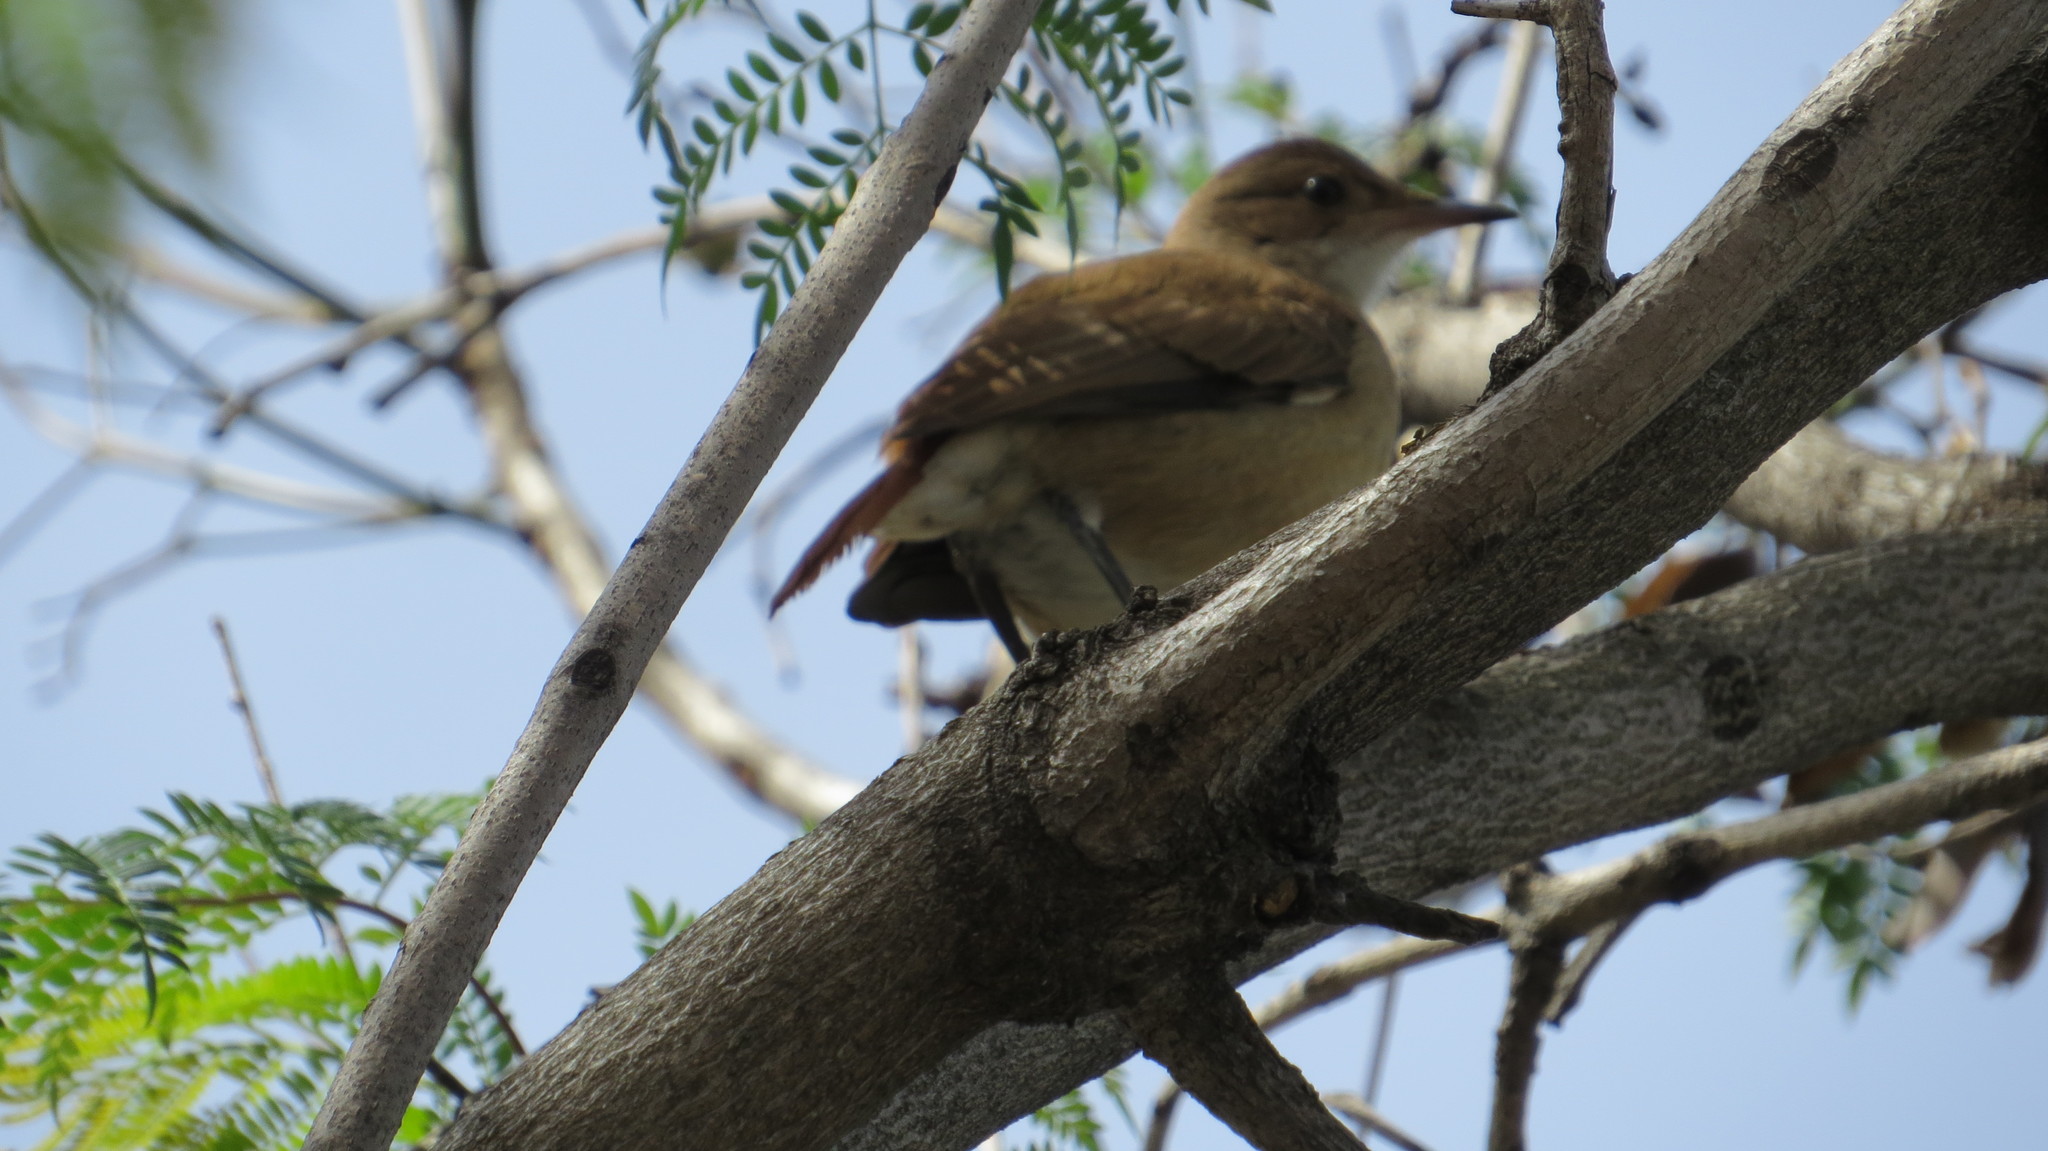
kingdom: Animalia
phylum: Chordata
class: Aves
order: Passeriformes
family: Furnariidae
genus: Furnarius
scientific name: Furnarius rufus
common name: Rufous hornero
